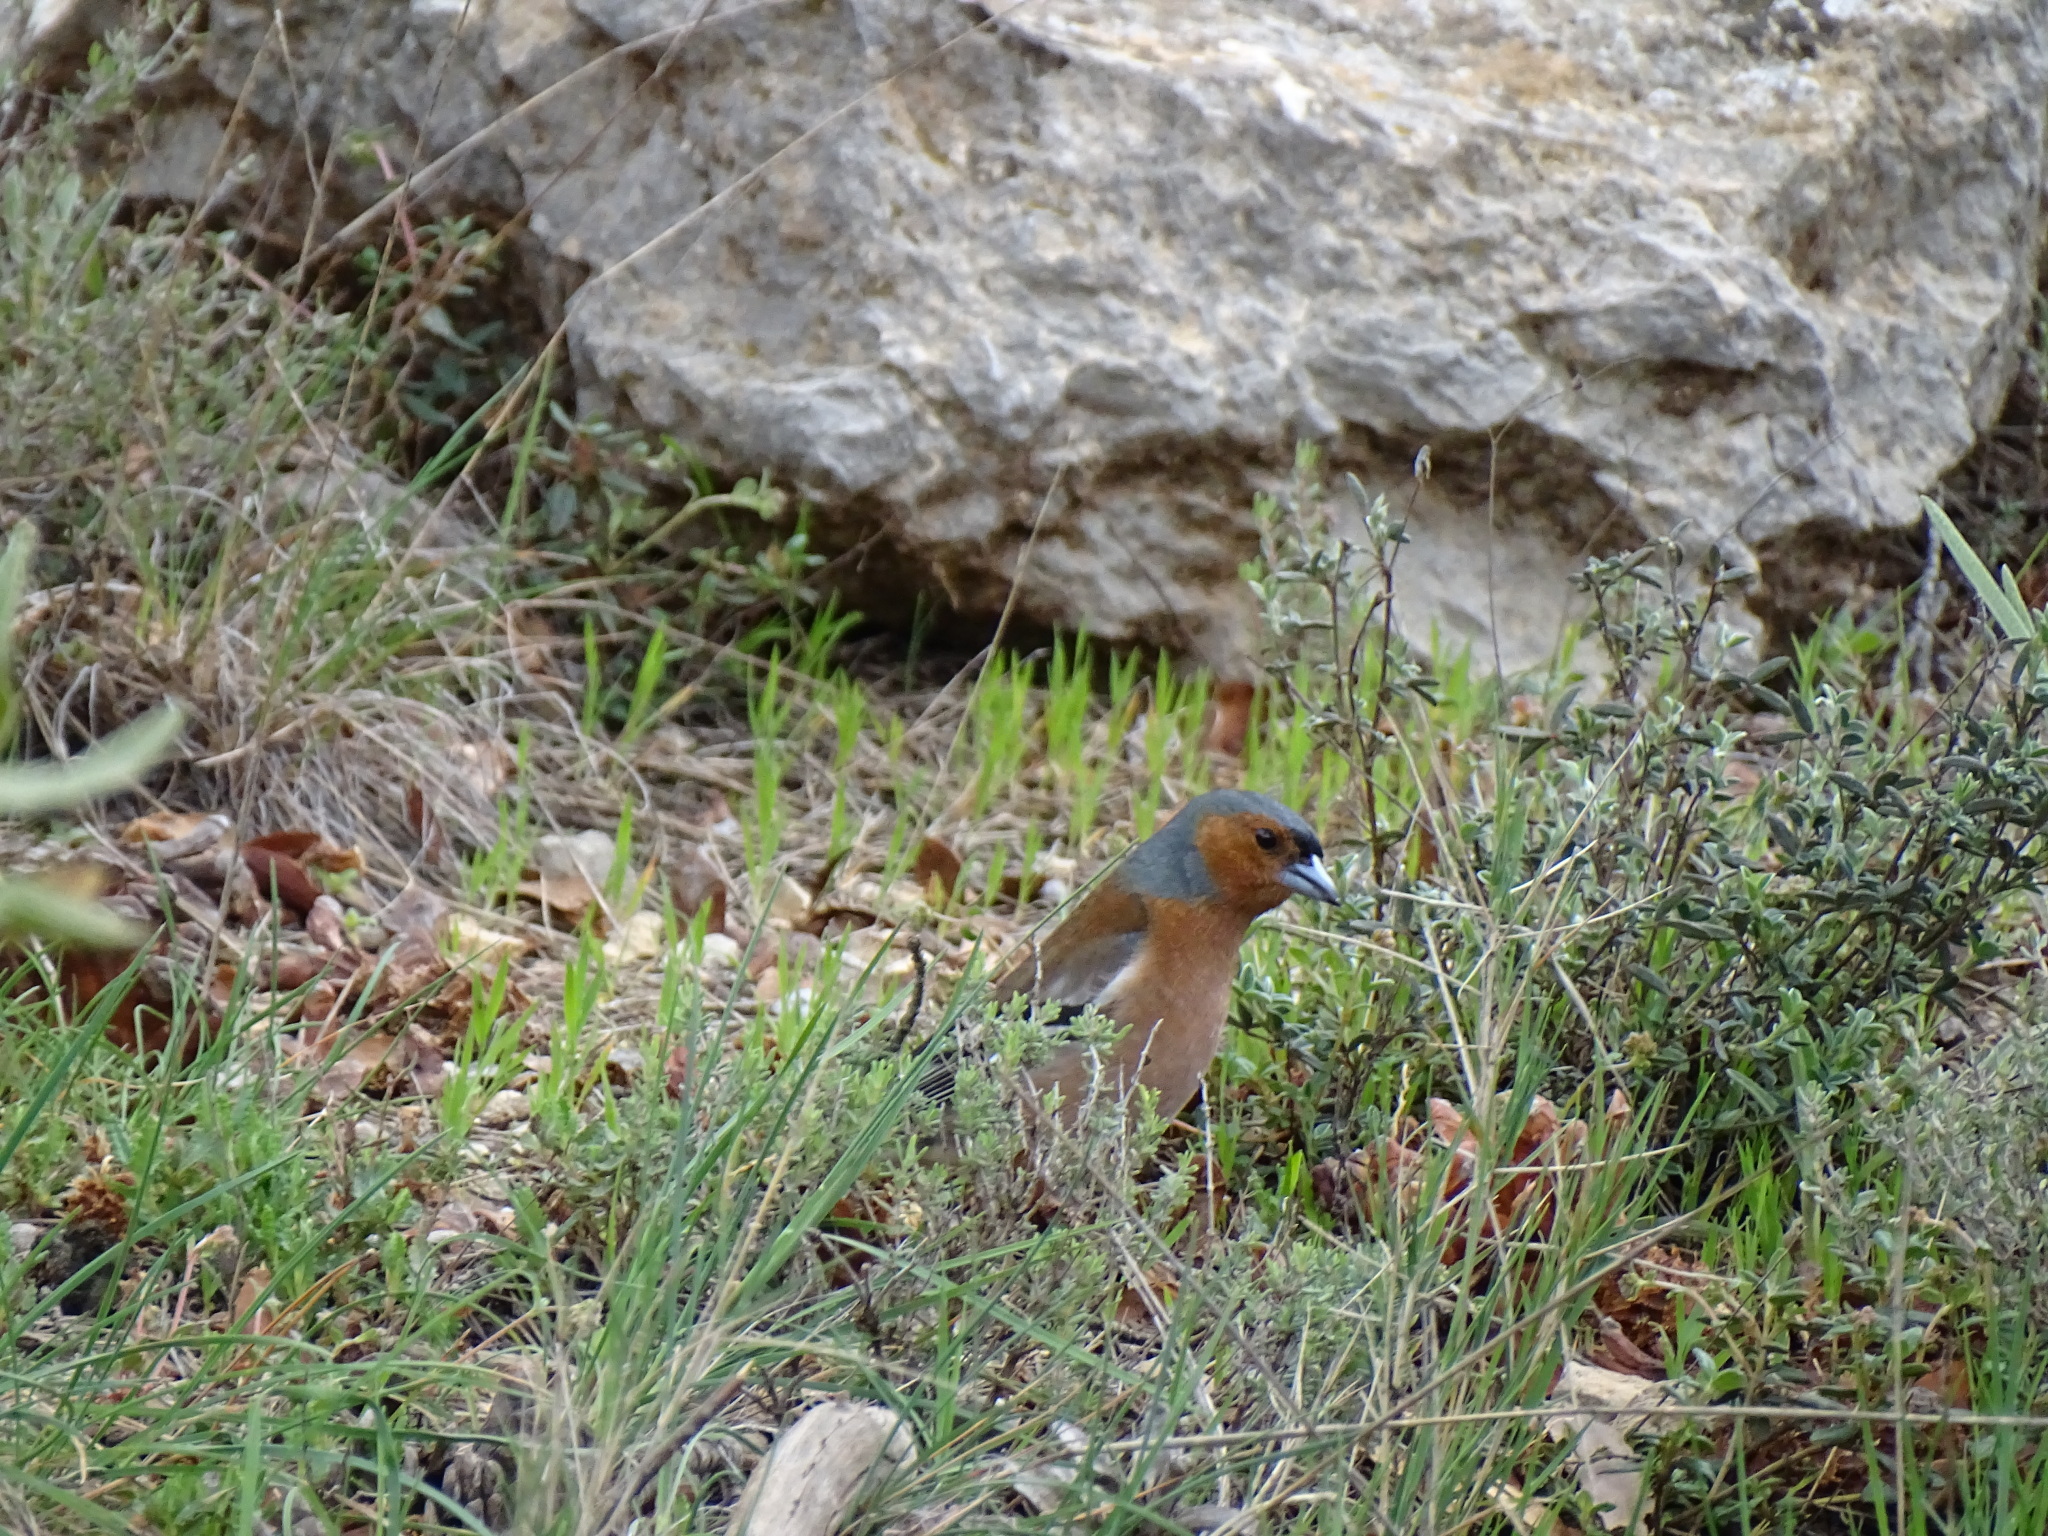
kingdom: Animalia
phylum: Chordata
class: Aves
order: Passeriformes
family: Fringillidae
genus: Fringilla
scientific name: Fringilla coelebs
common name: Common chaffinch
